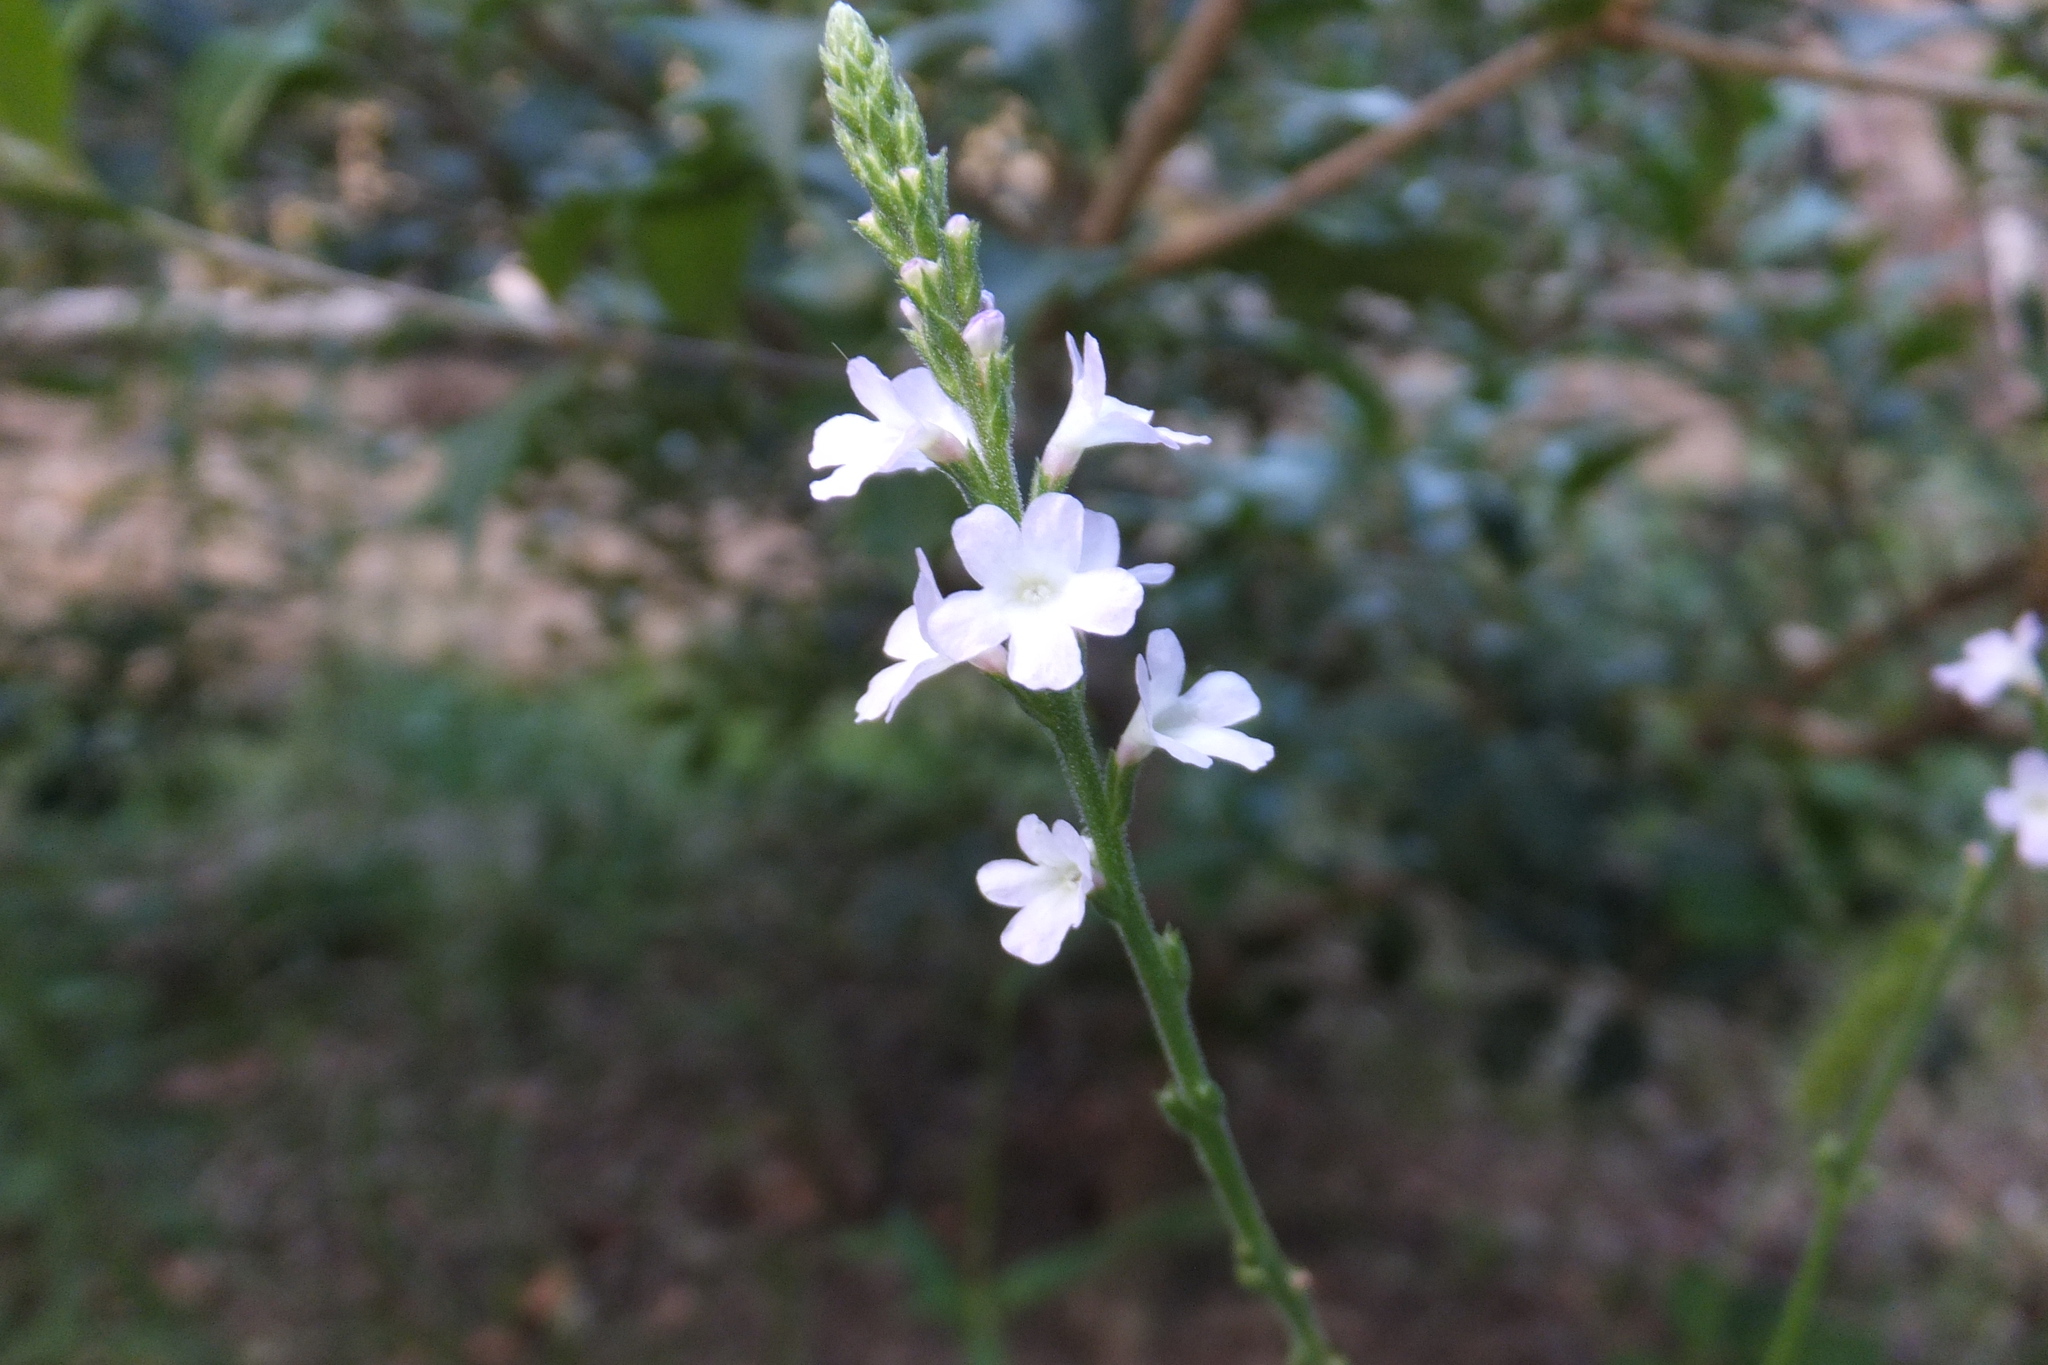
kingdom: Plantae
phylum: Tracheophyta
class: Magnoliopsida
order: Lamiales
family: Verbenaceae
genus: Verbena
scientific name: Verbena officinalis
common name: Vervain
